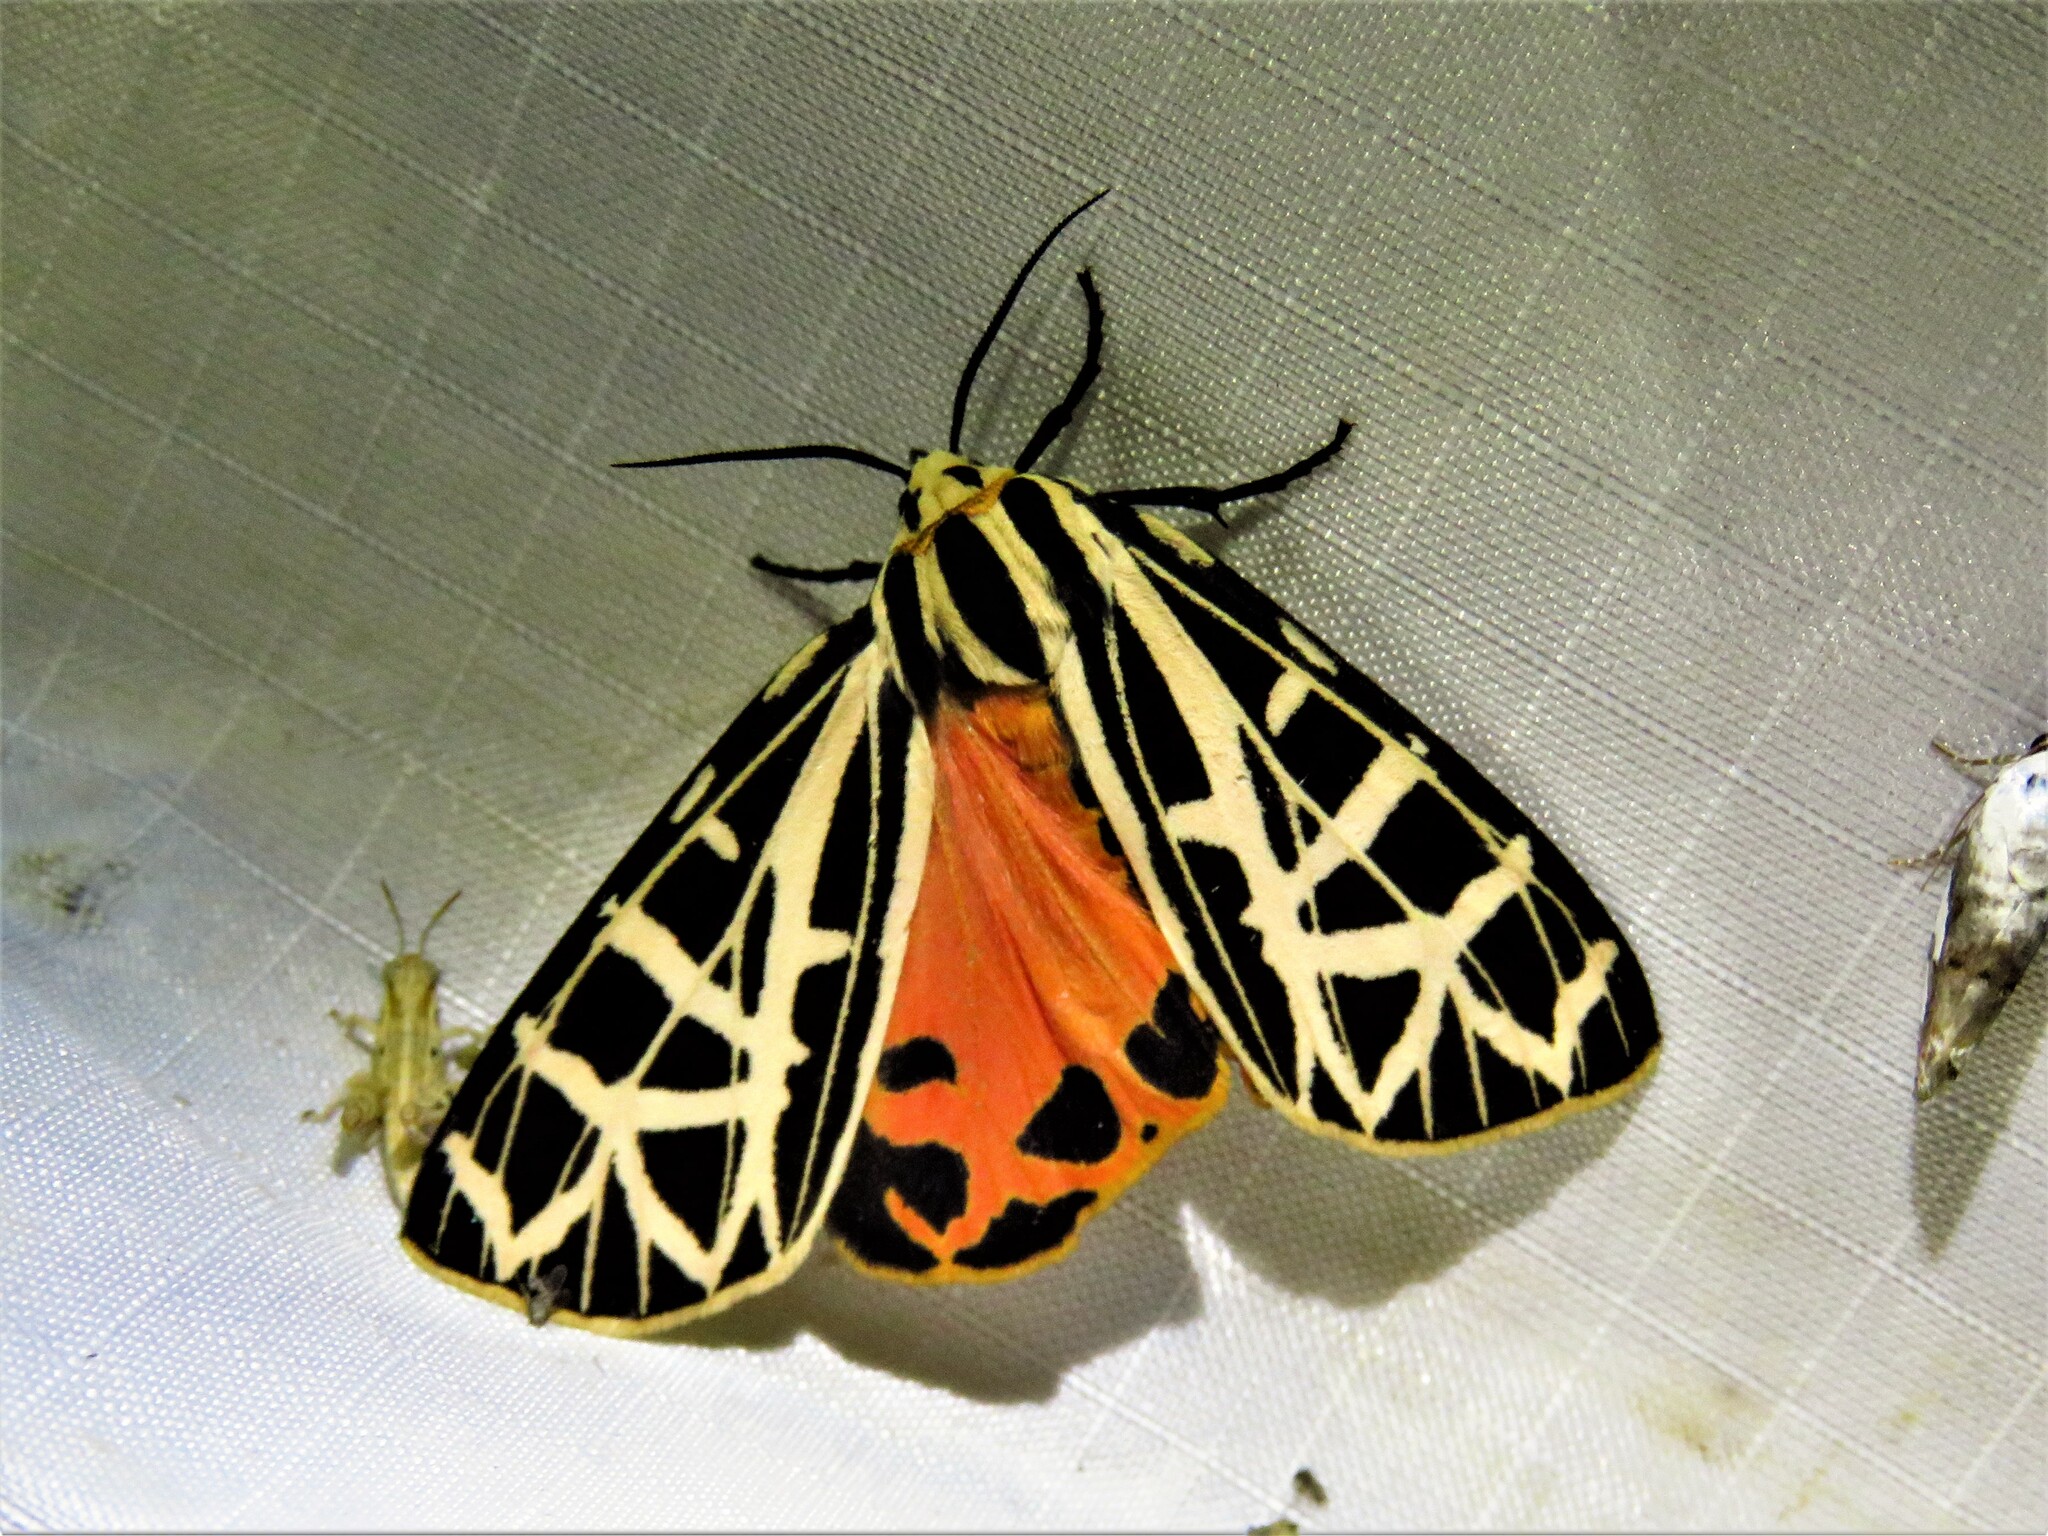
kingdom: Animalia
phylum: Arthropoda
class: Insecta
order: Lepidoptera
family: Erebidae
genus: Grammia
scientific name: Grammia parthenice
